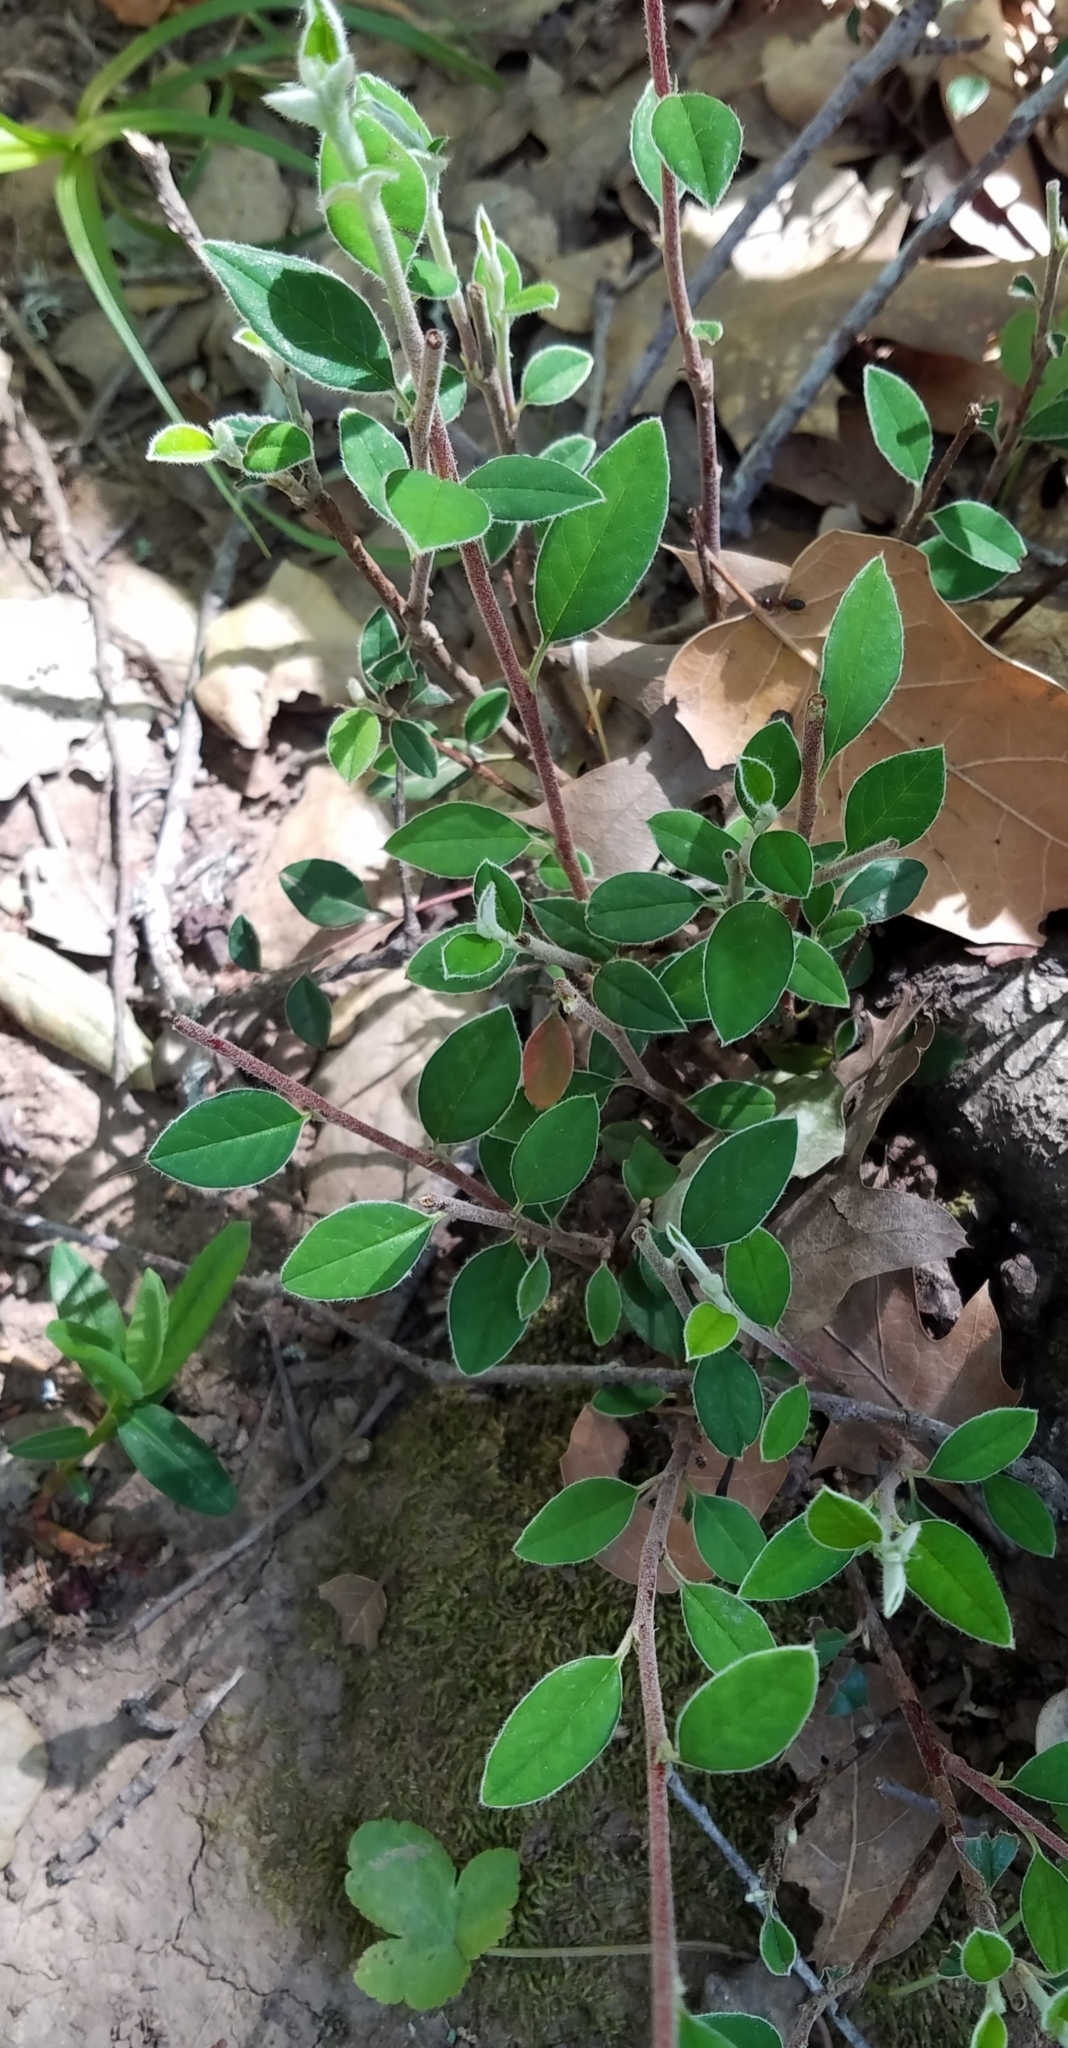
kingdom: Plantae
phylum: Tracheophyta
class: Magnoliopsida
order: Rosales
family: Rosaceae
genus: Cotoneaster
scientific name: Cotoneaster pannosus
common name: Silverleaf cotoneaster
